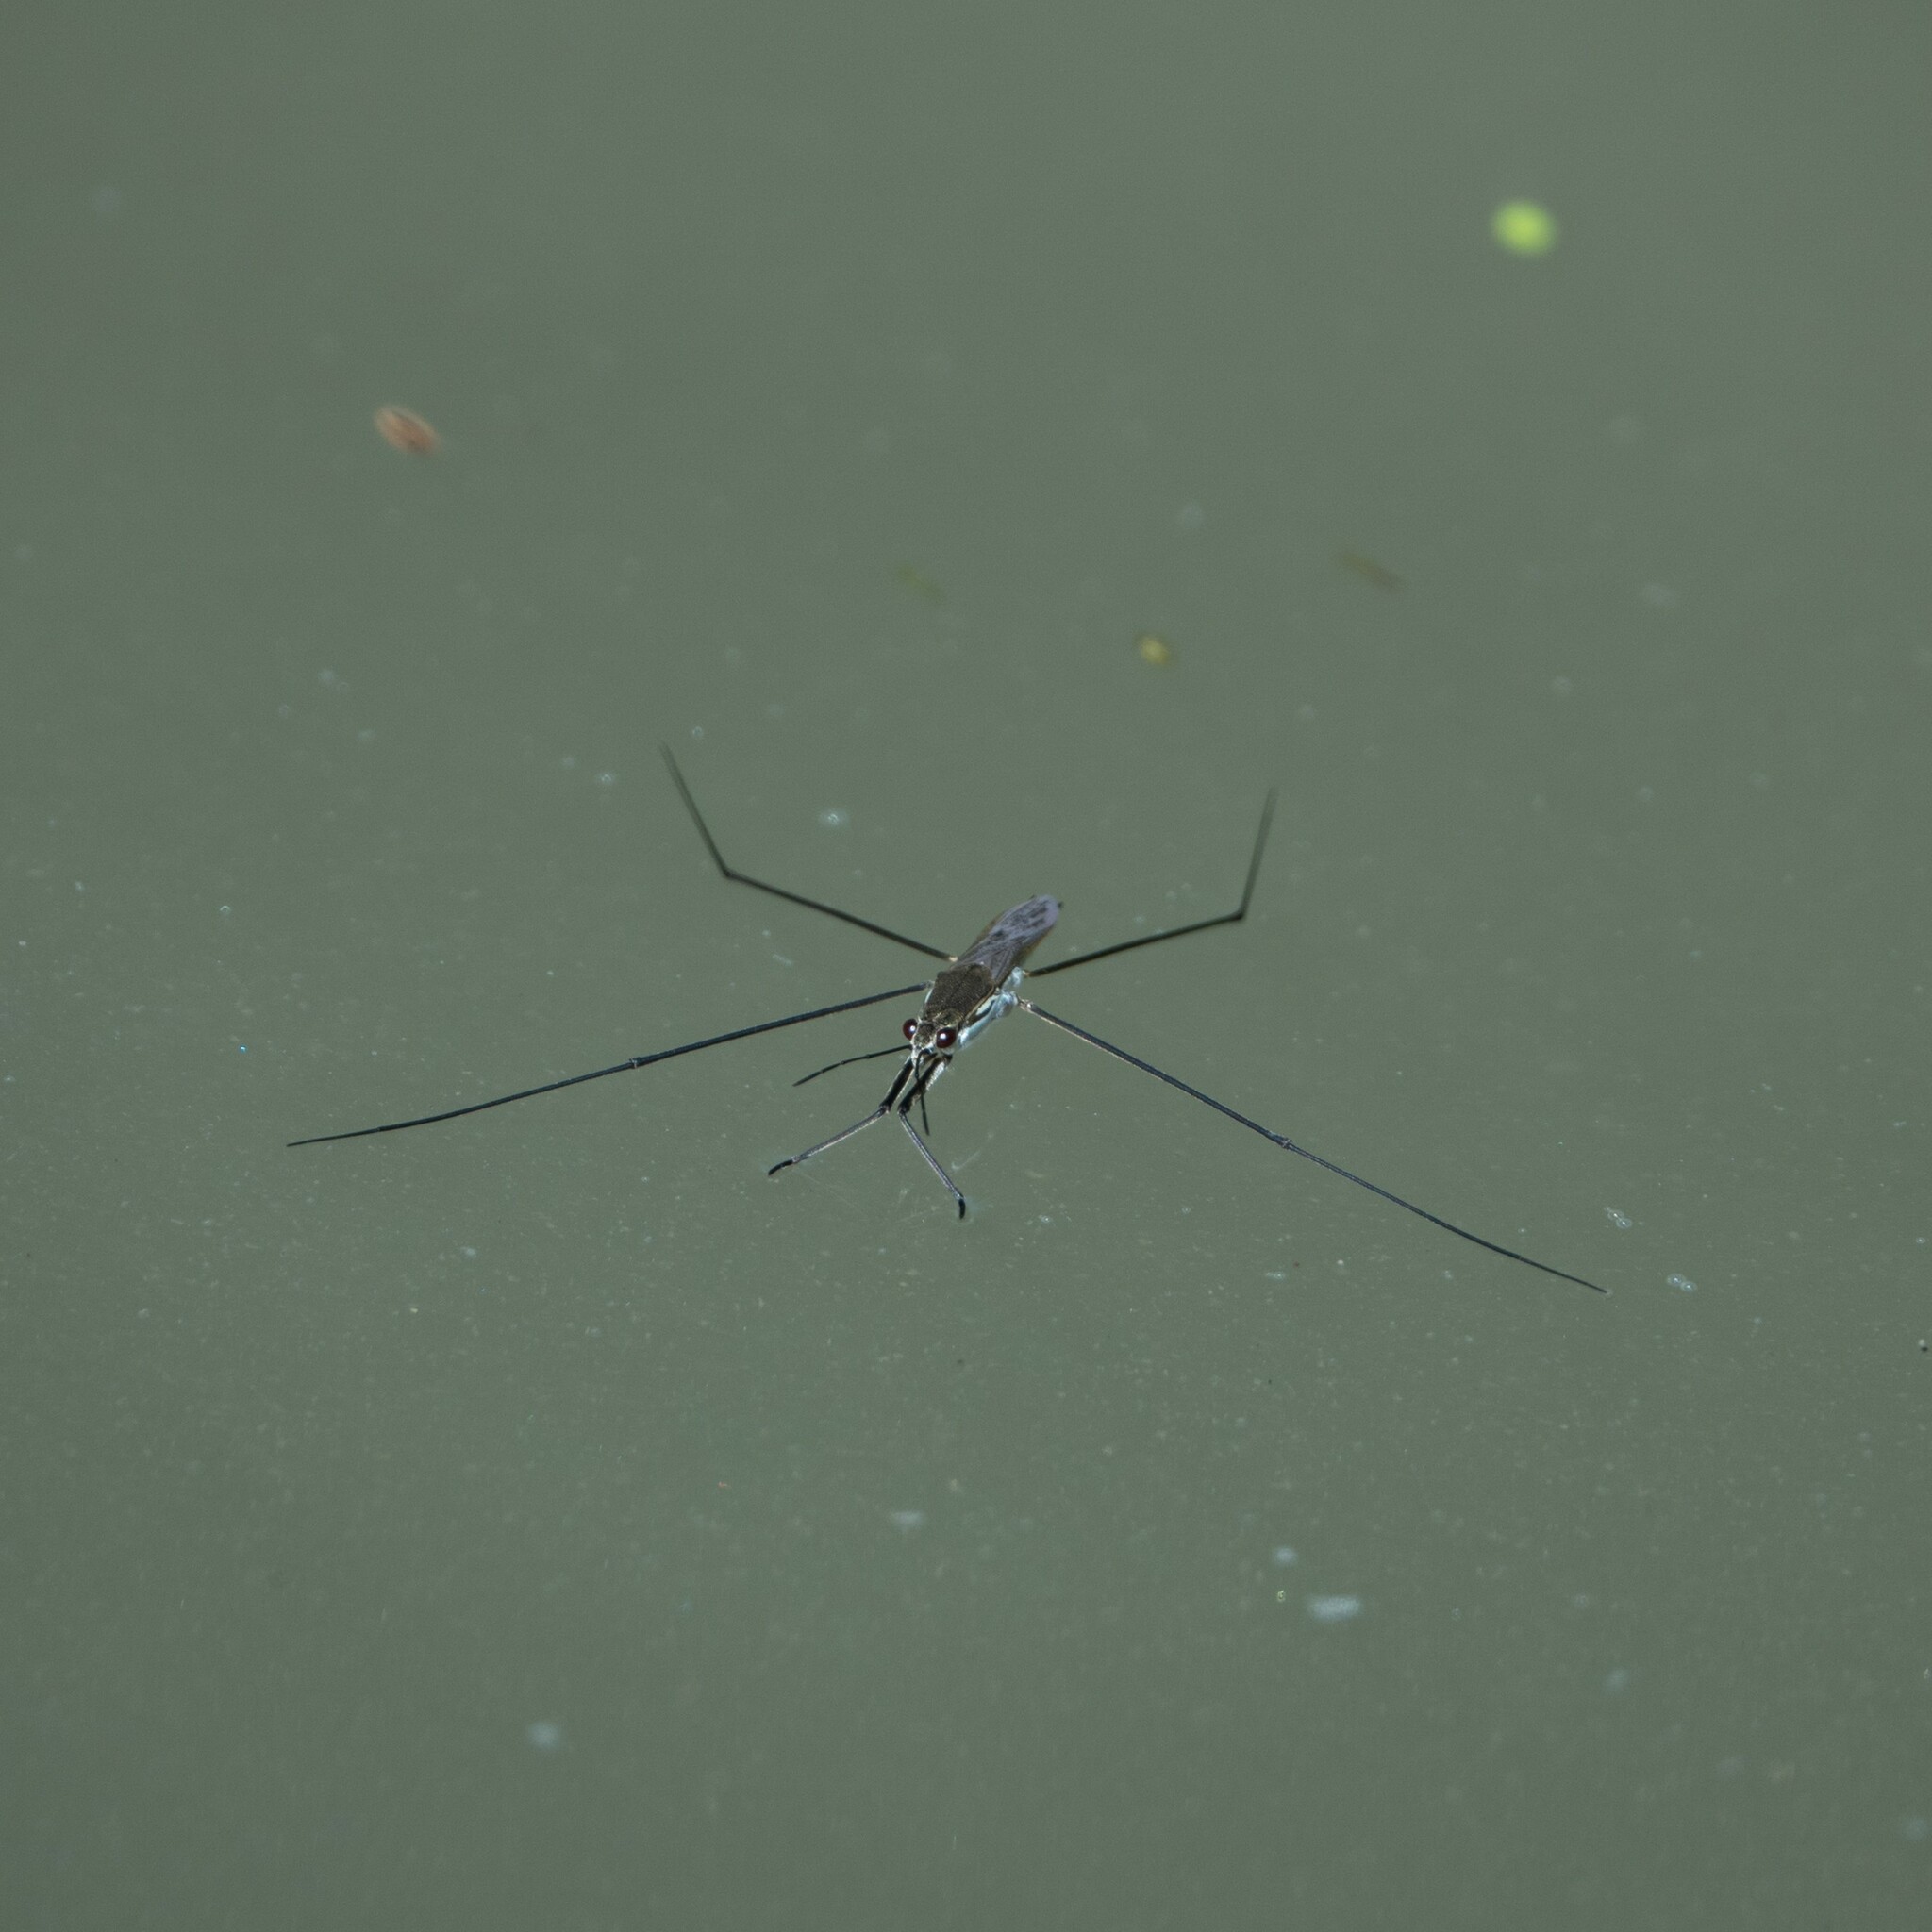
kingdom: Animalia
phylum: Arthropoda
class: Insecta
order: Hemiptera
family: Gerridae
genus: Aquarius
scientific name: Aquarius paludum
